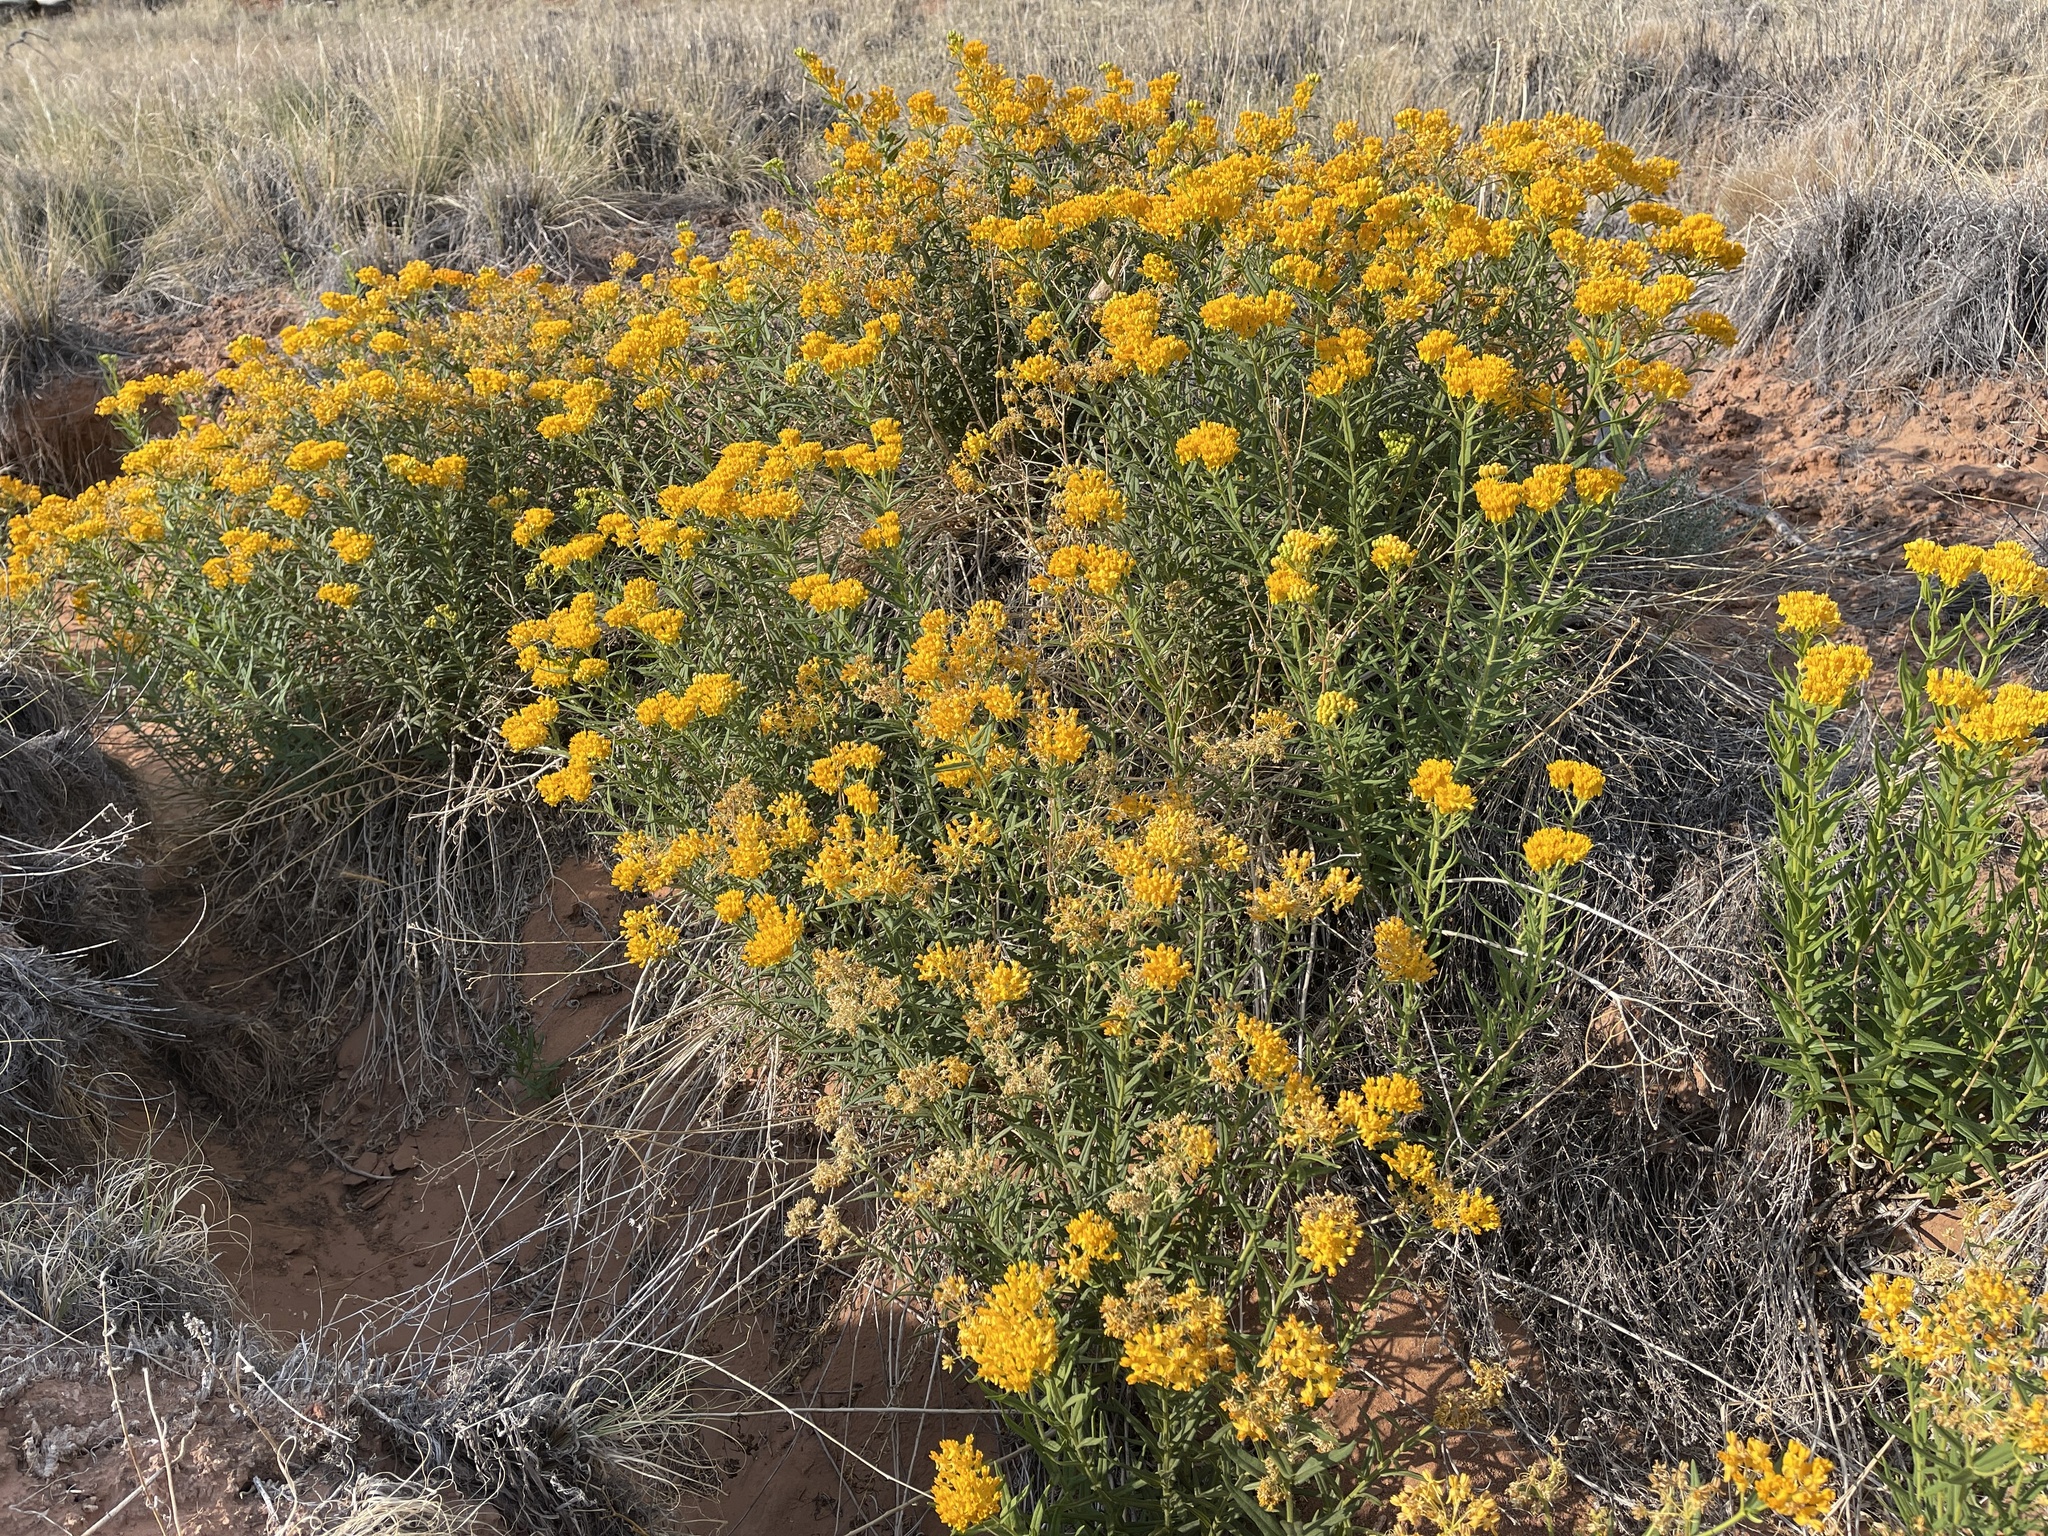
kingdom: Plantae
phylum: Tracheophyta
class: Magnoliopsida
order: Gentianales
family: Apocynaceae
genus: Asclepias
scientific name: Asclepias tuberosa
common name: Butterfly milkweed
